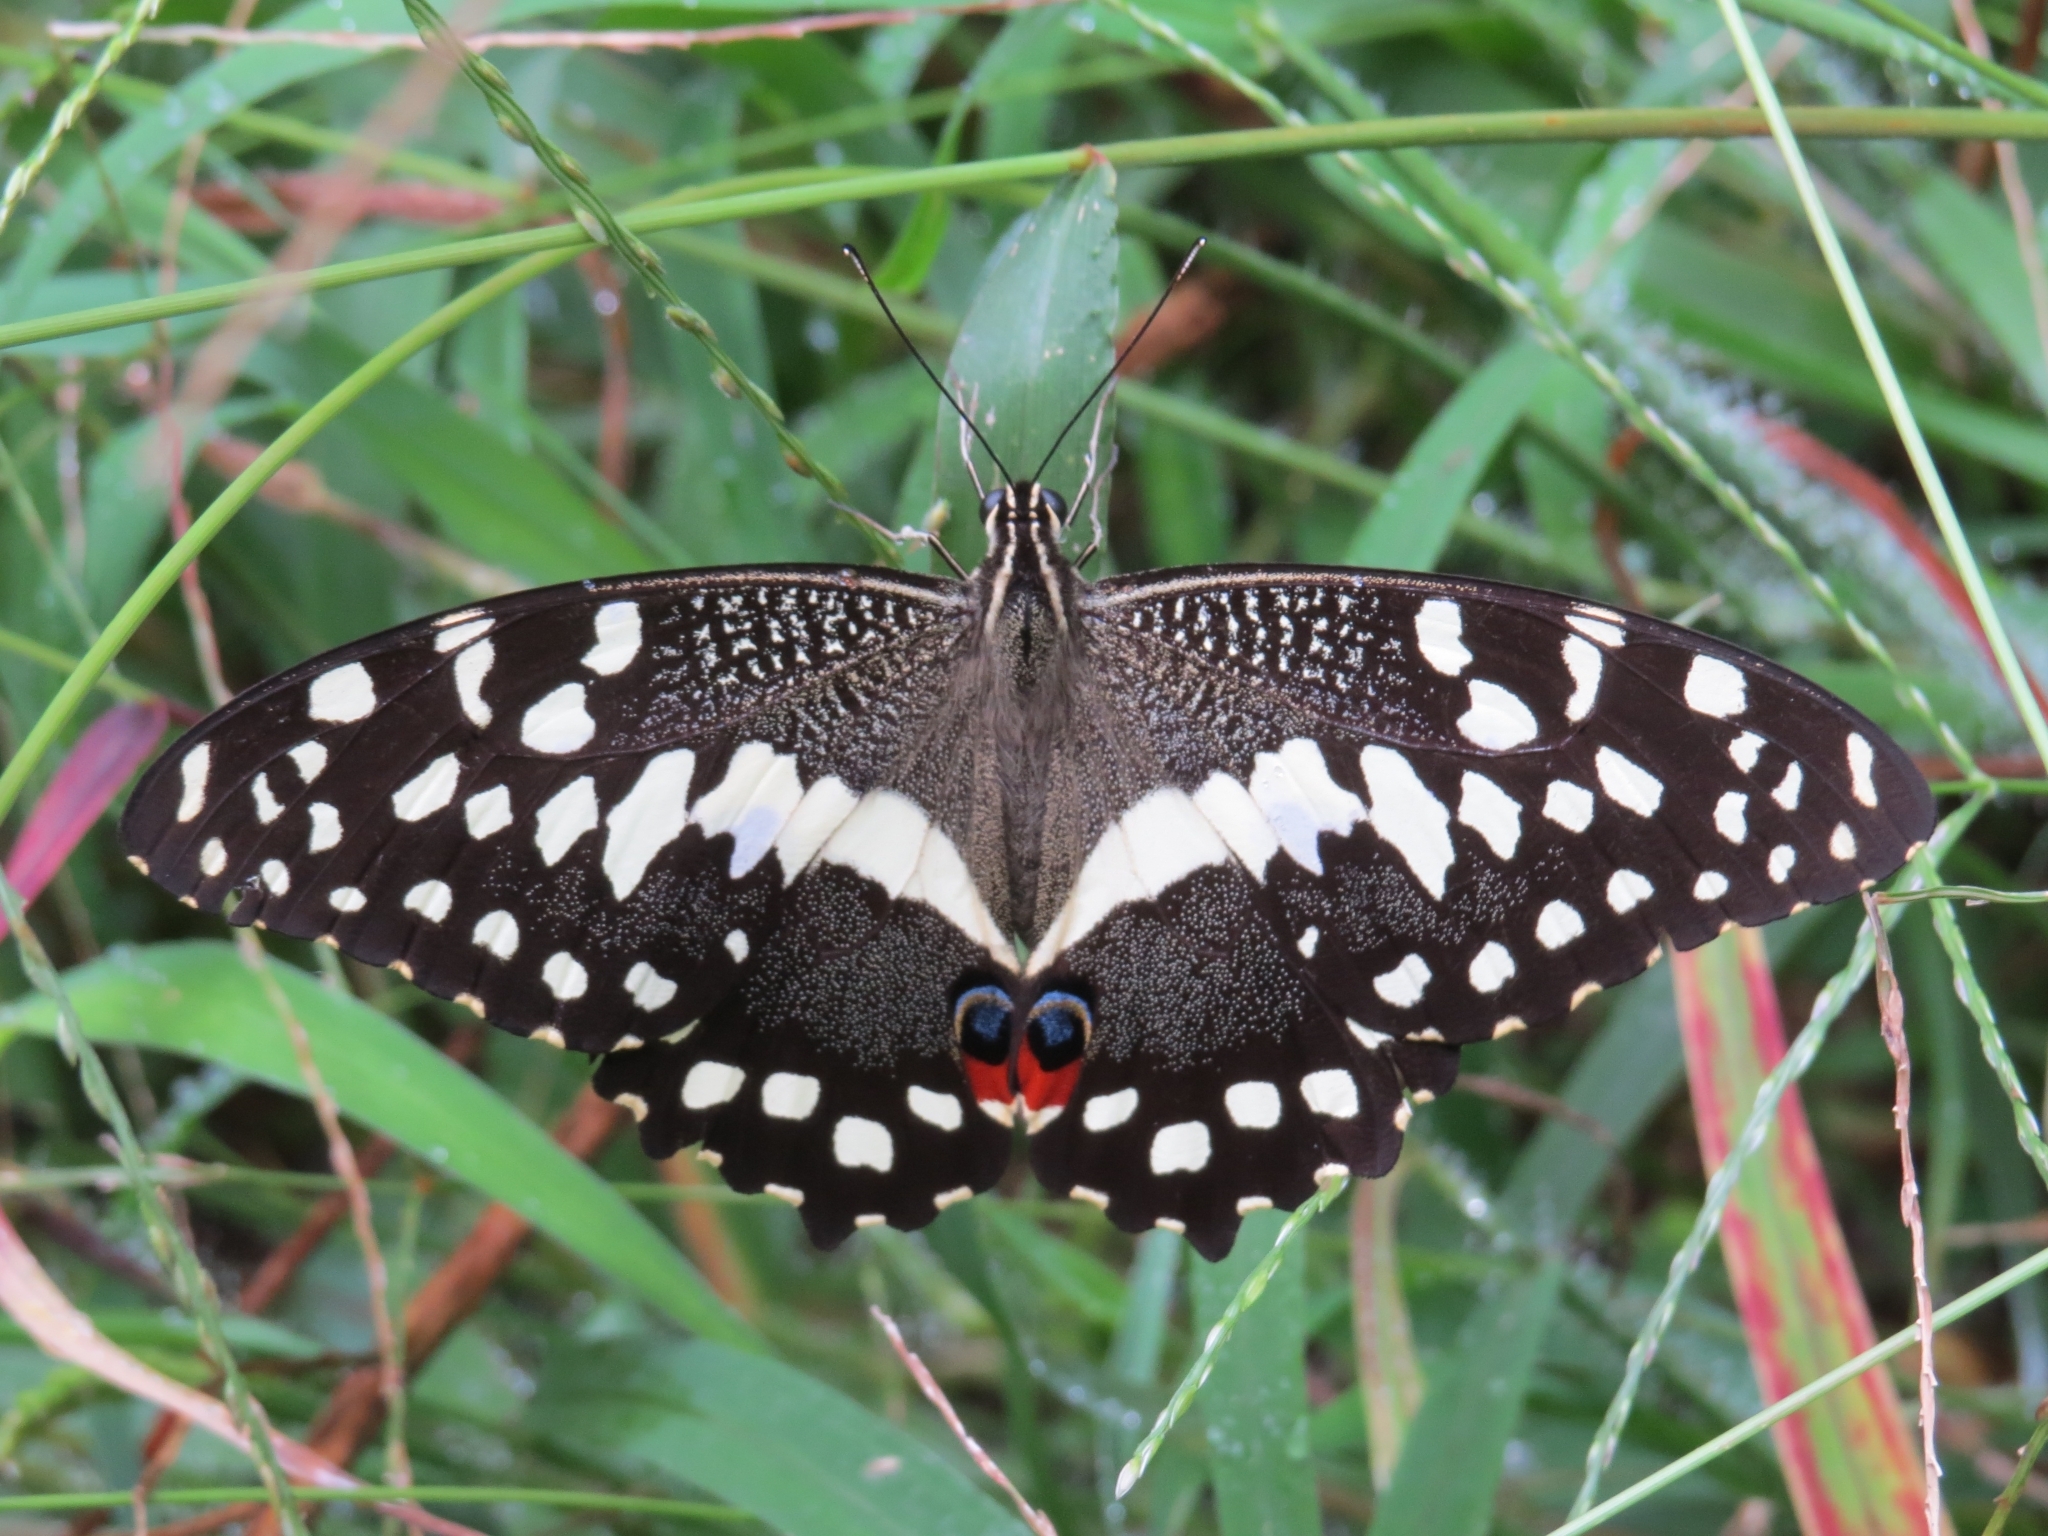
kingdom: Animalia
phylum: Arthropoda
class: Insecta
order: Lepidoptera
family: Papilionidae
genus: Papilio
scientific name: Papilio demodocus
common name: Christmas butterfly
